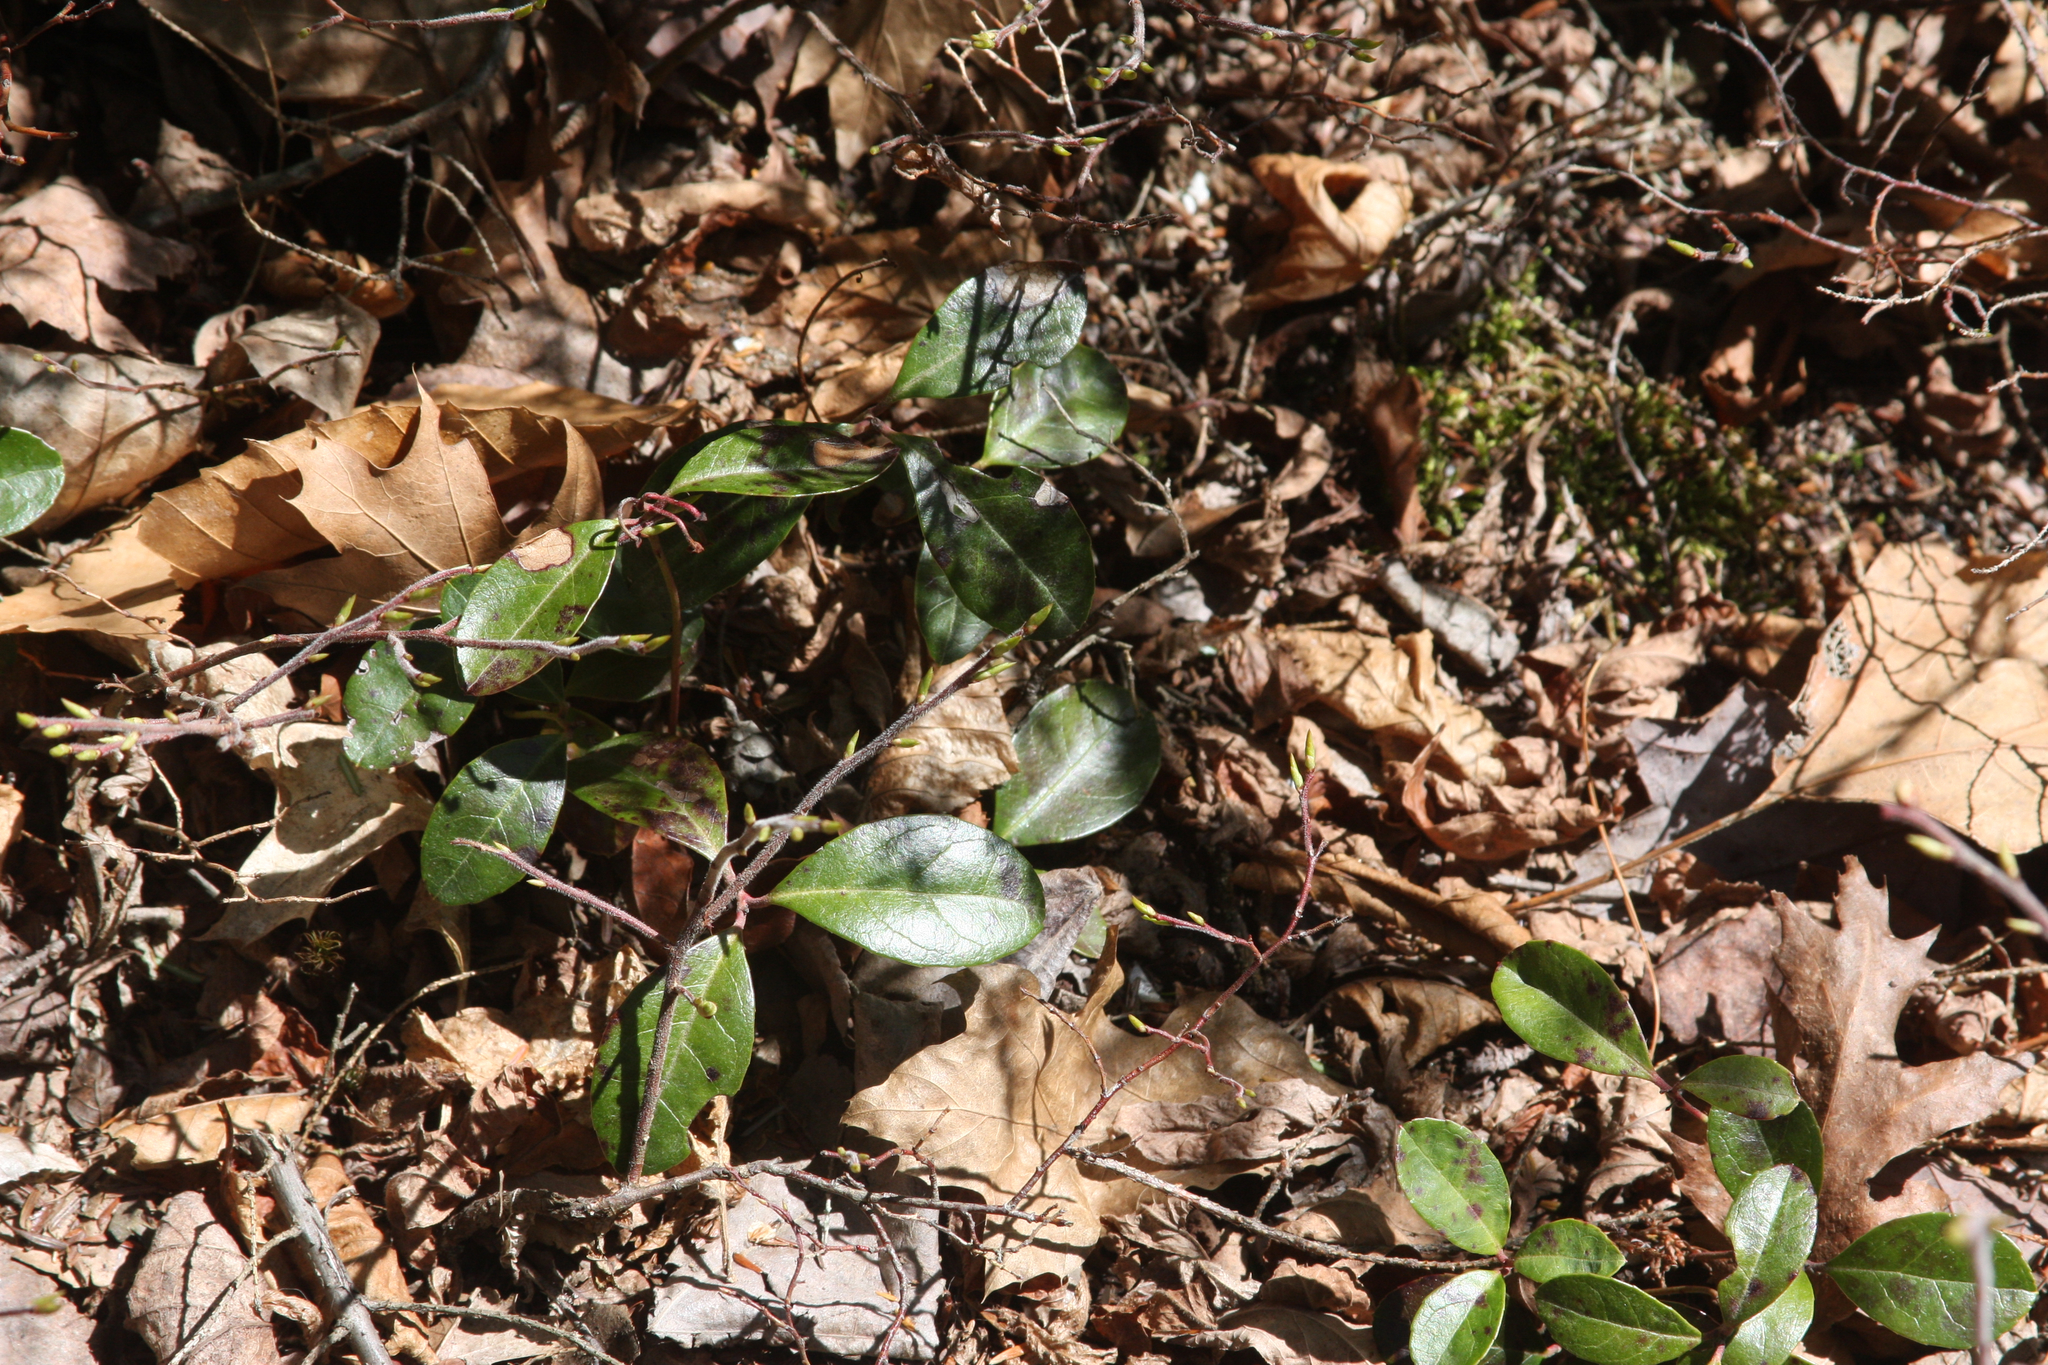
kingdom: Plantae
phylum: Tracheophyta
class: Magnoliopsida
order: Ericales
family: Ericaceae
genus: Gaultheria
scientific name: Gaultheria procumbens
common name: Checkerberry
